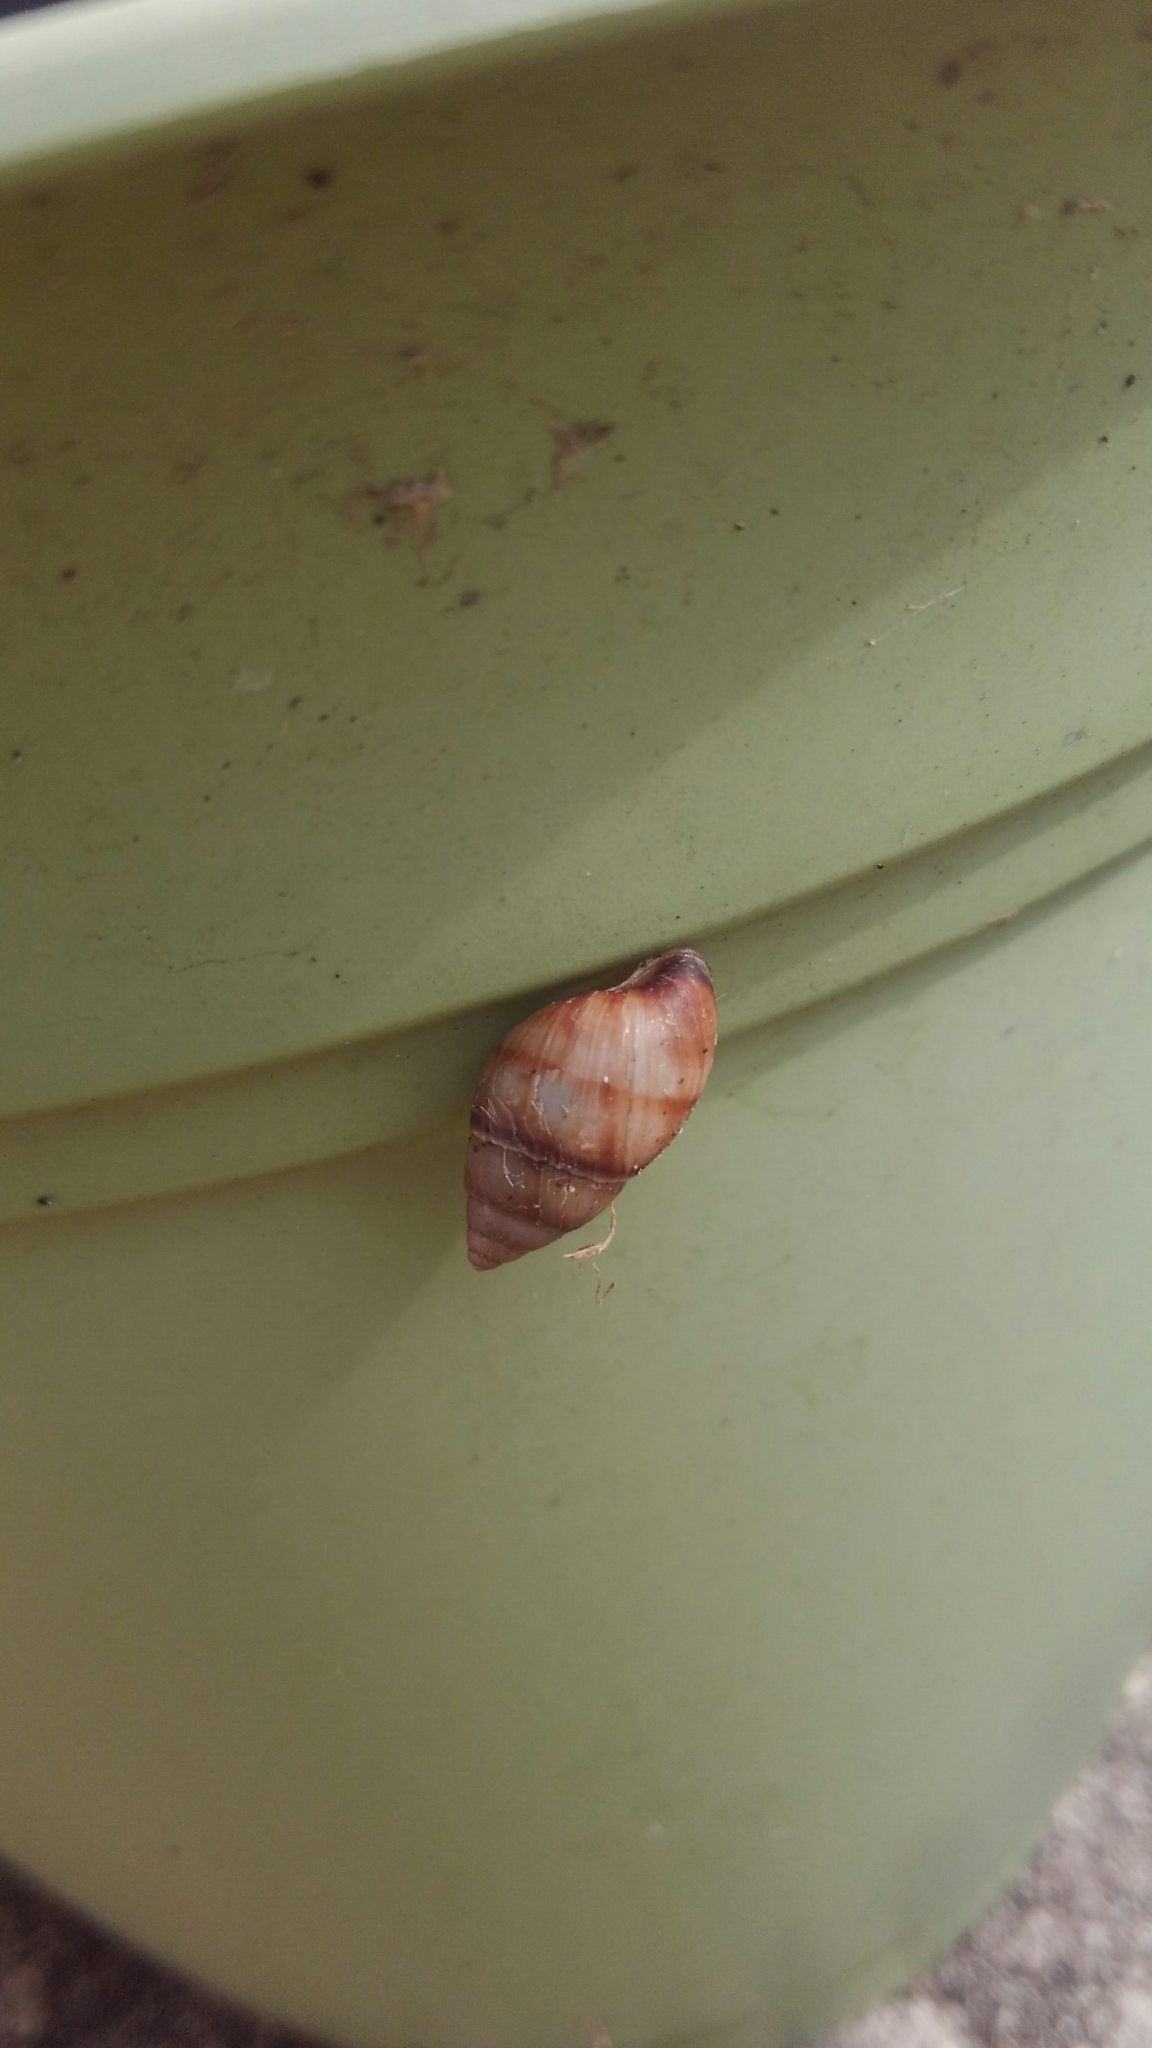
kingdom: Animalia
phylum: Mollusca
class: Gastropoda
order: Stylommatophora
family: Bulimulidae
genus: Bulimulus
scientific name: Bulimulus guadalupensis
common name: West indian bulimulus
